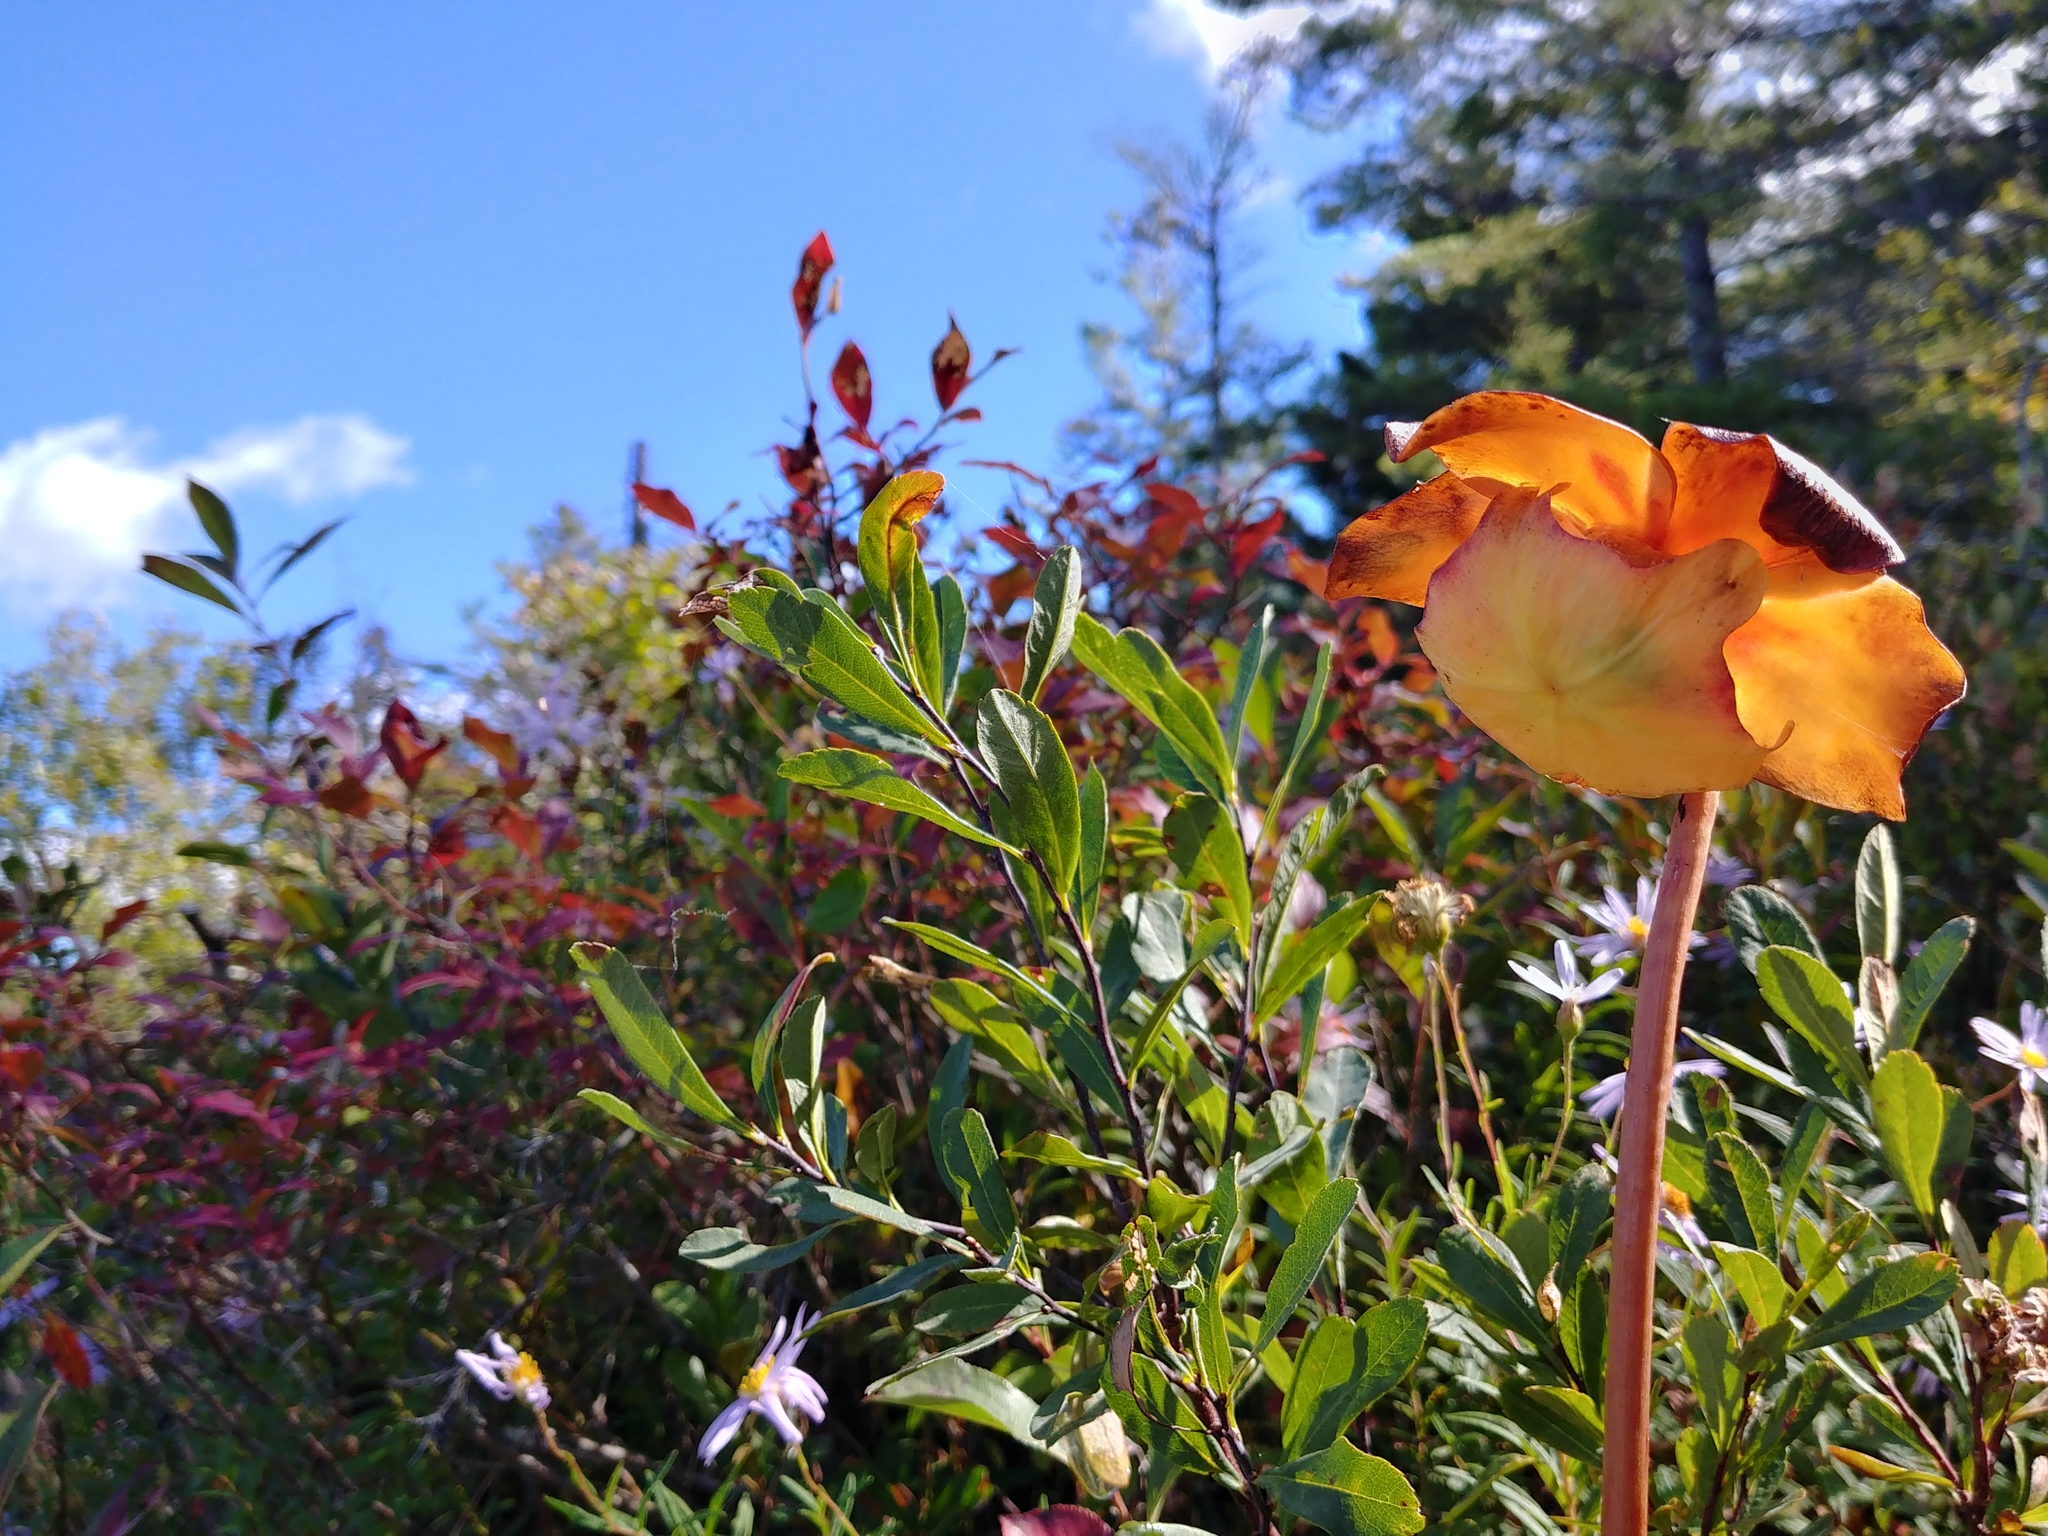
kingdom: Plantae
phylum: Tracheophyta
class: Magnoliopsida
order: Ericales
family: Sarraceniaceae
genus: Sarracenia
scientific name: Sarracenia purpurea
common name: Pitcherplant
